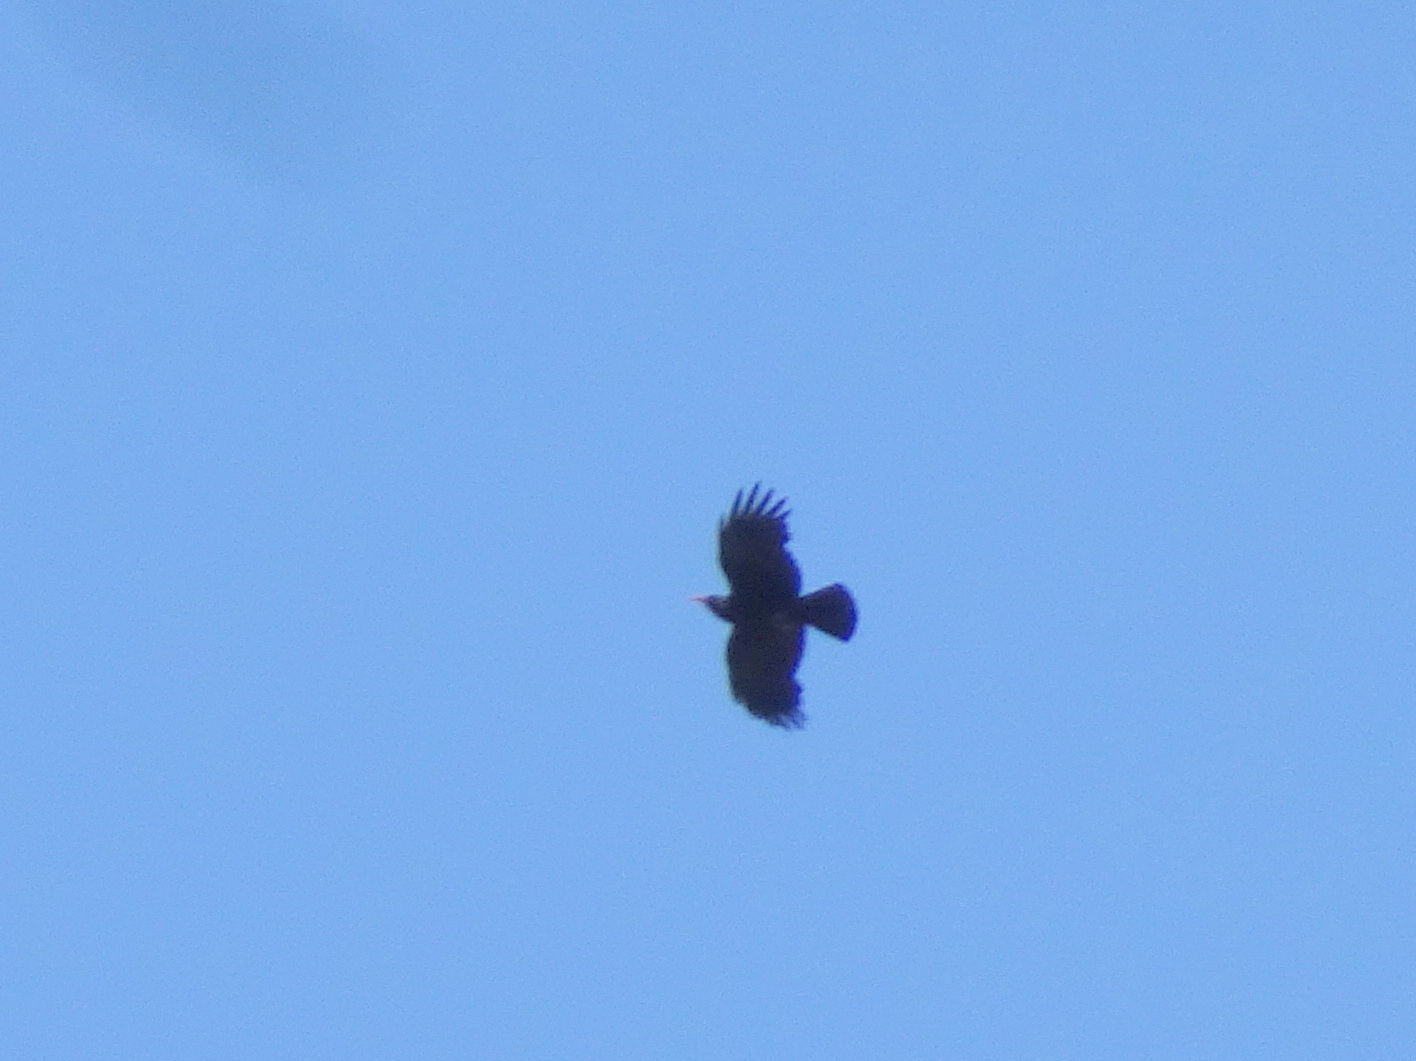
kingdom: Animalia
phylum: Chordata
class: Aves
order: Passeriformes
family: Corvidae
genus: Pyrrhocorax
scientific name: Pyrrhocorax pyrrhocorax
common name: Red-billed chough
